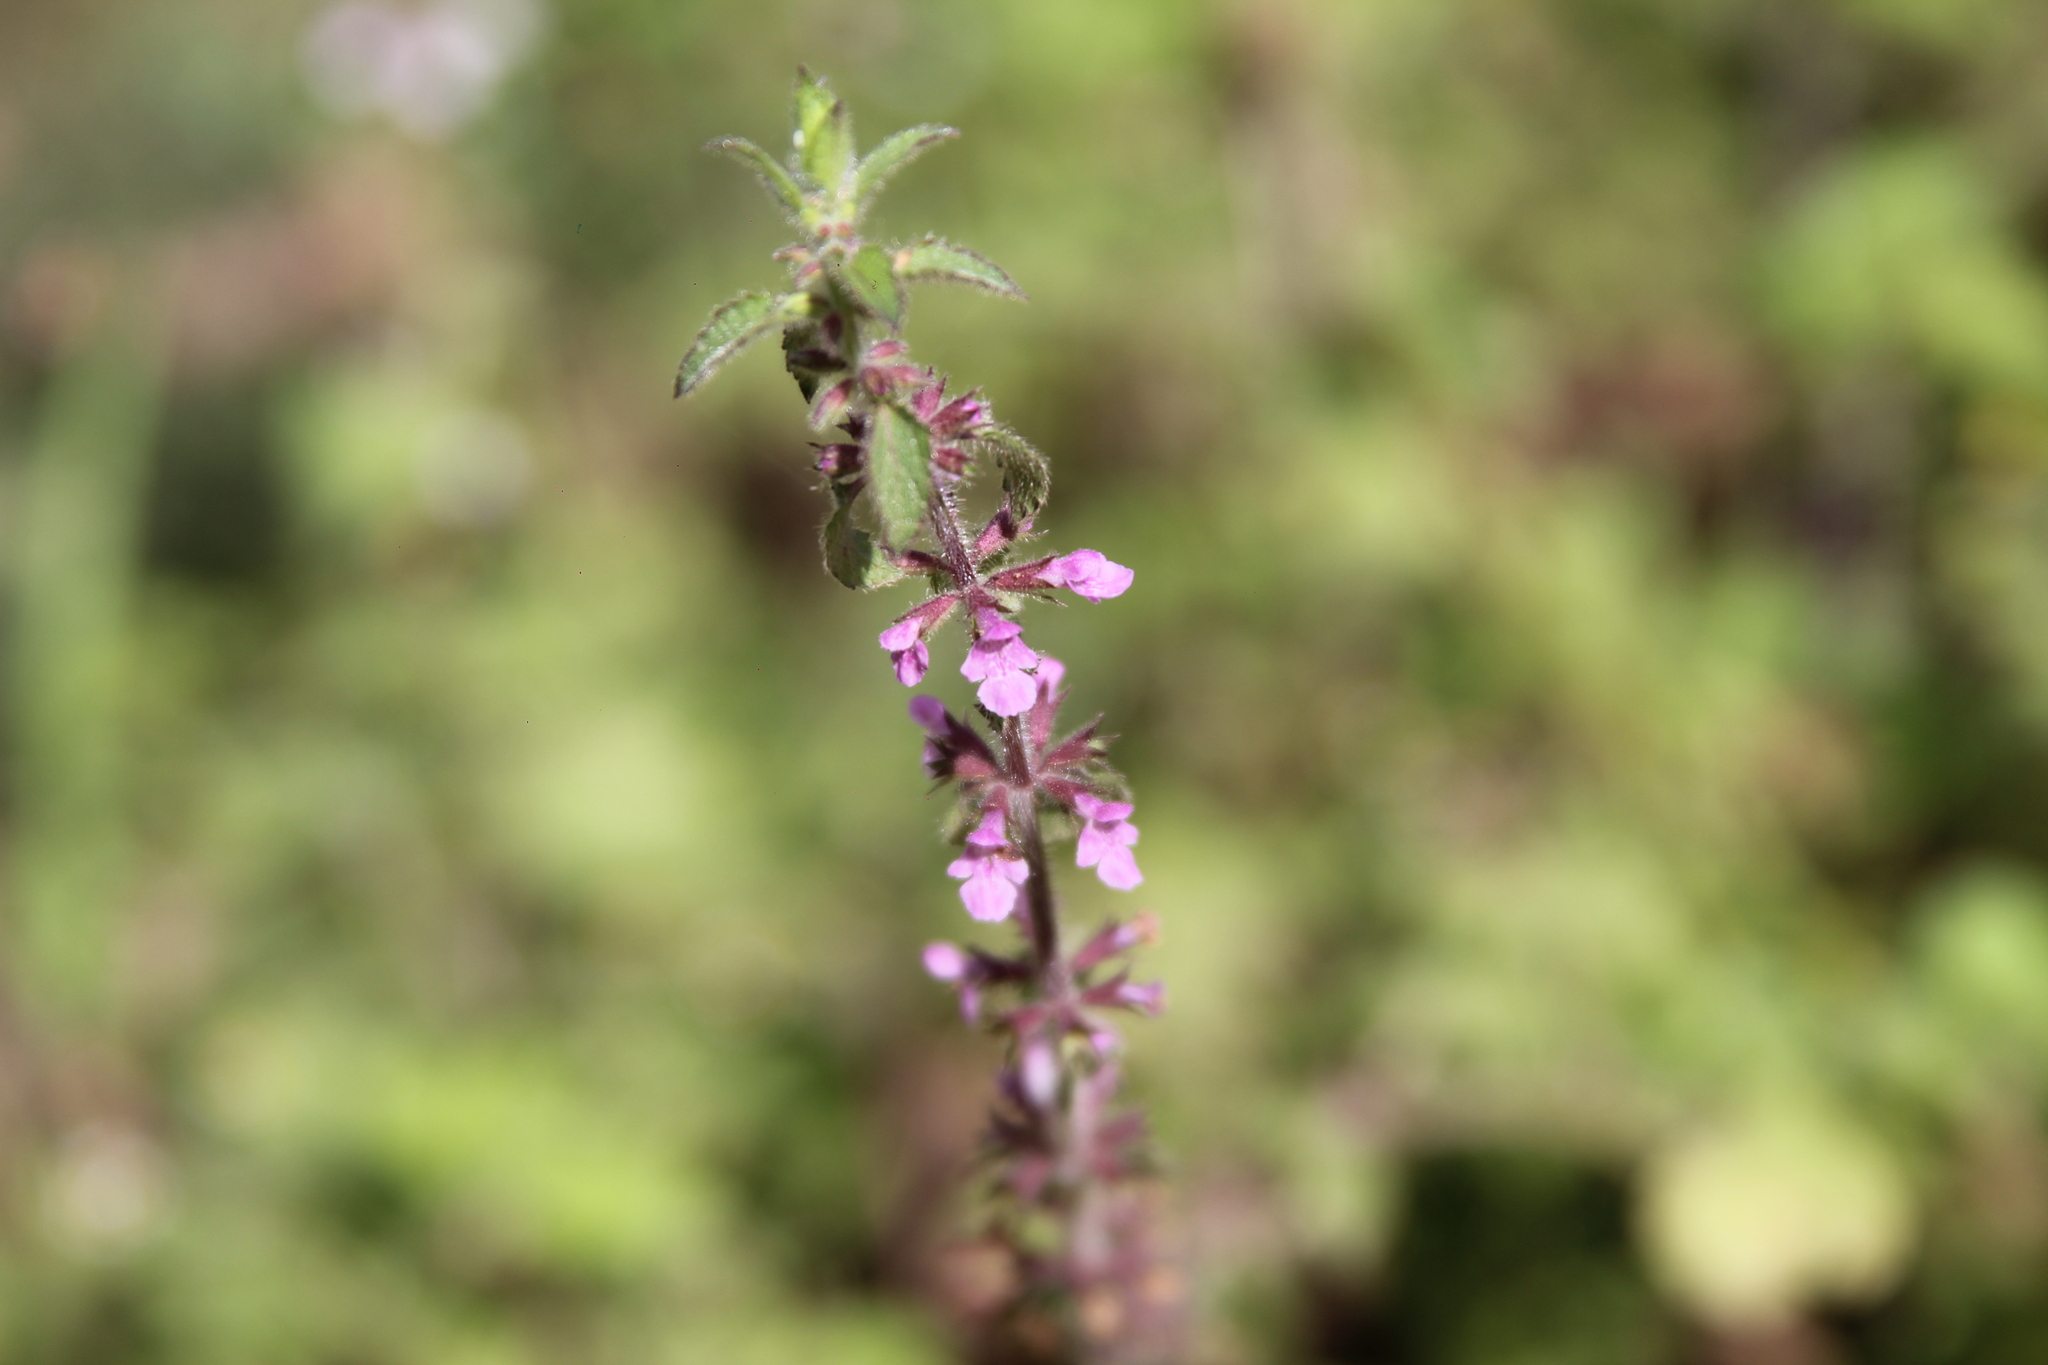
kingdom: Plantae
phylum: Tracheophyta
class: Magnoliopsida
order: Lamiales
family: Lamiaceae
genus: Stachys
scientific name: Stachys gilliesii
